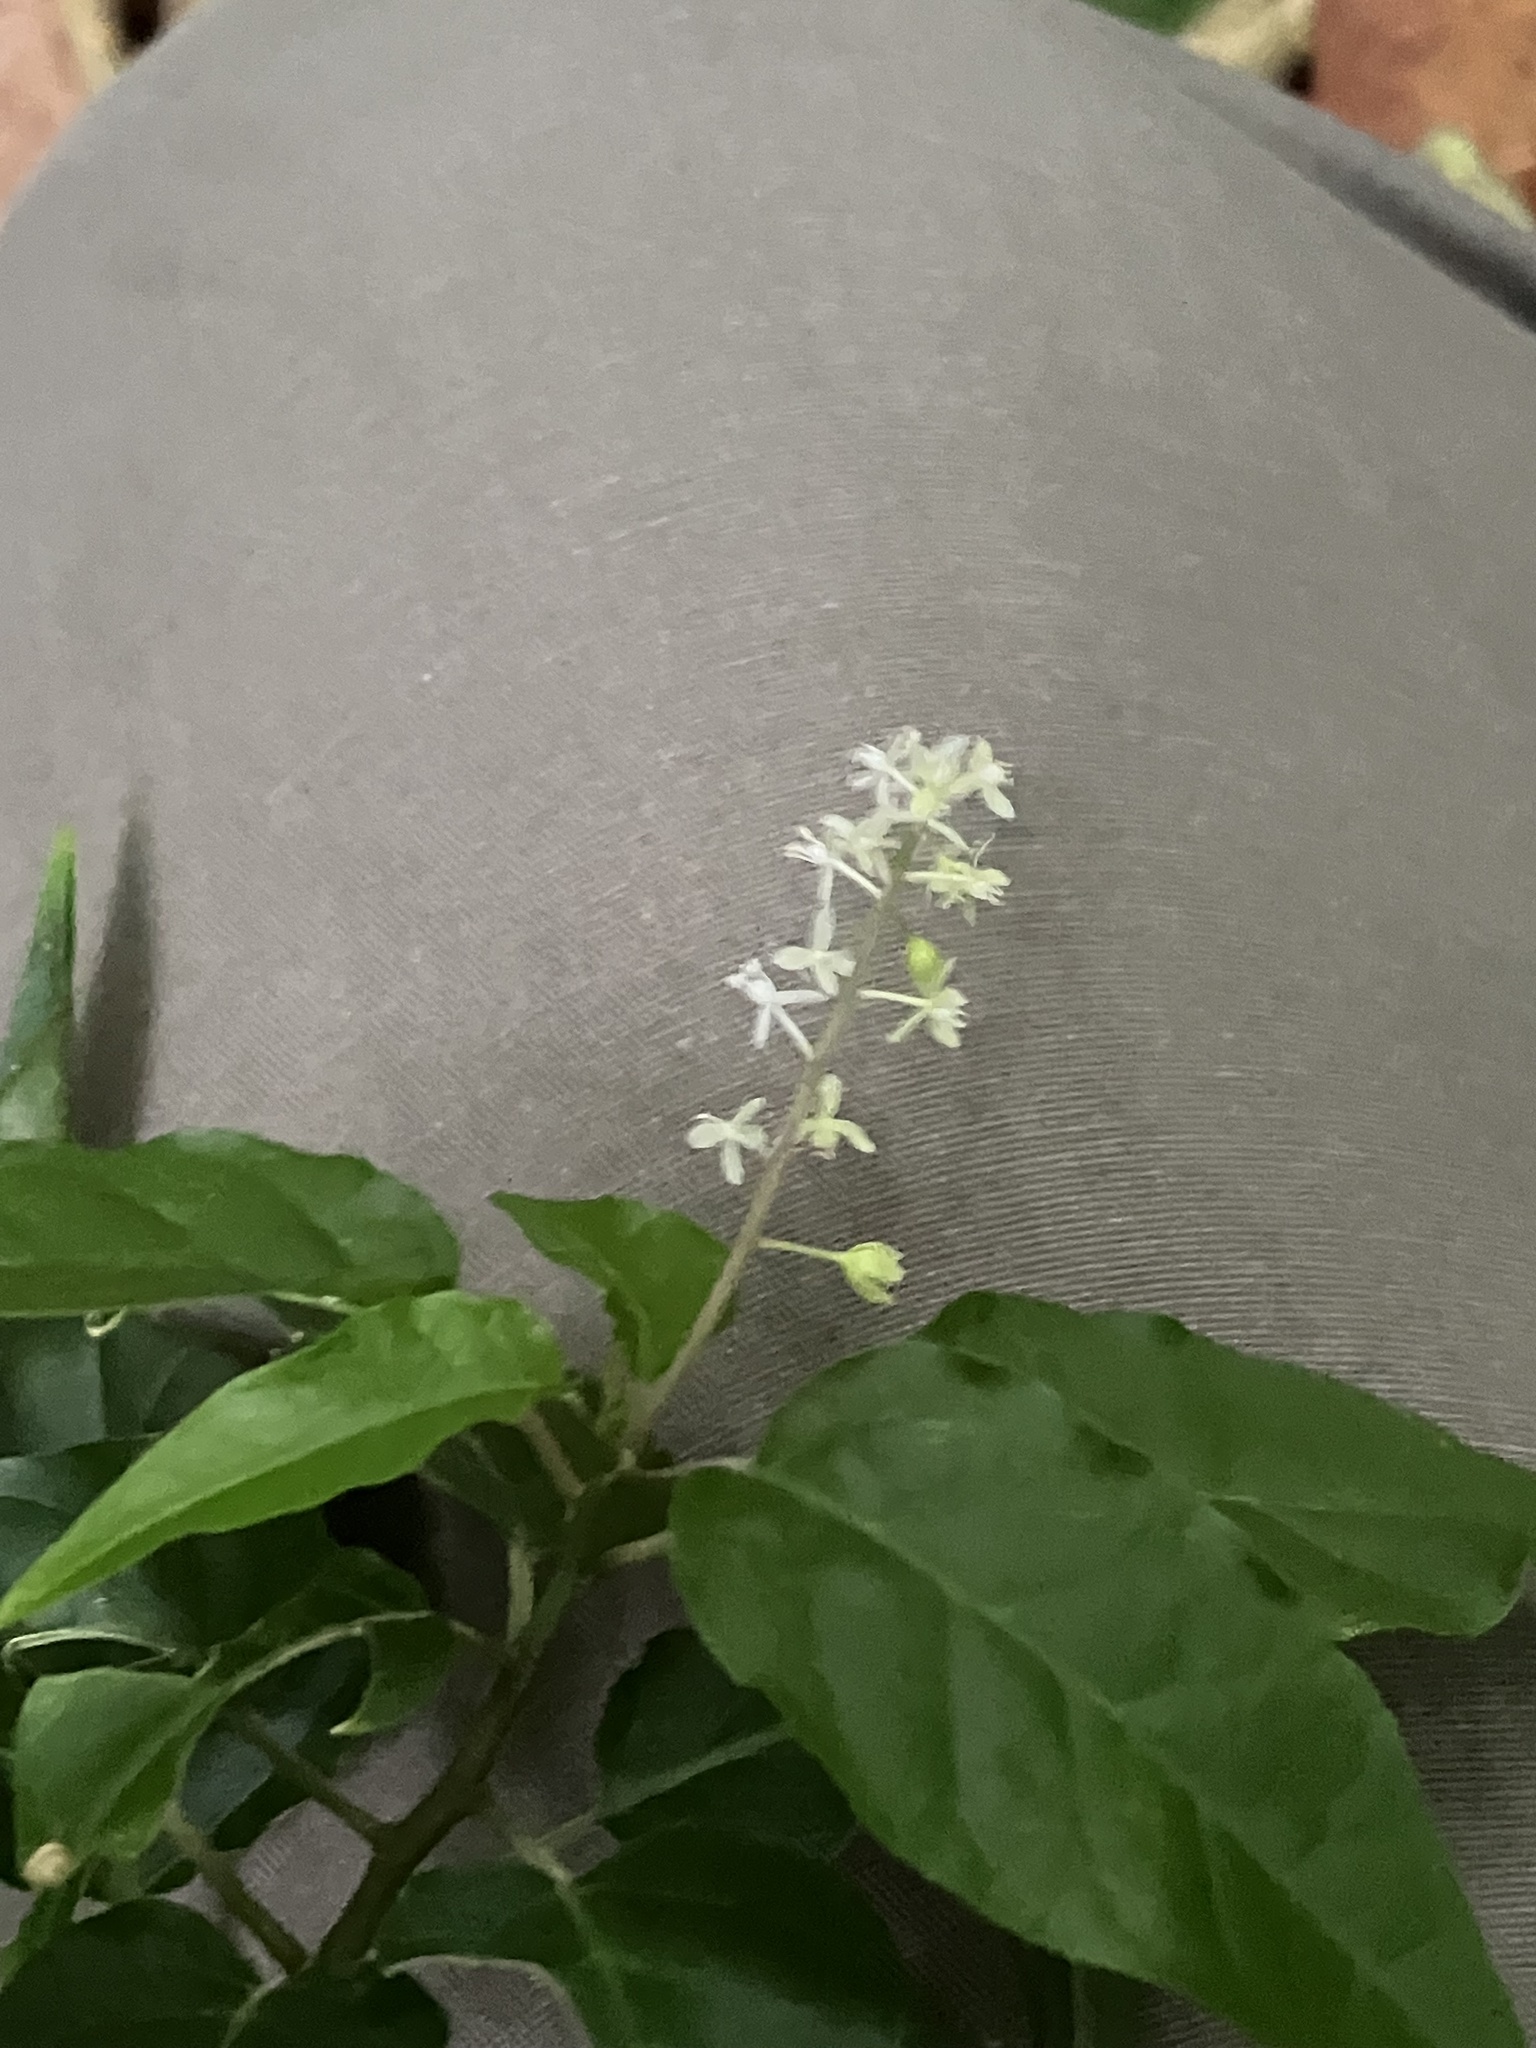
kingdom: Plantae
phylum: Tracheophyta
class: Magnoliopsida
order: Caryophyllales
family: Phytolaccaceae
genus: Rivina
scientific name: Rivina humilis
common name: Rougeplant
